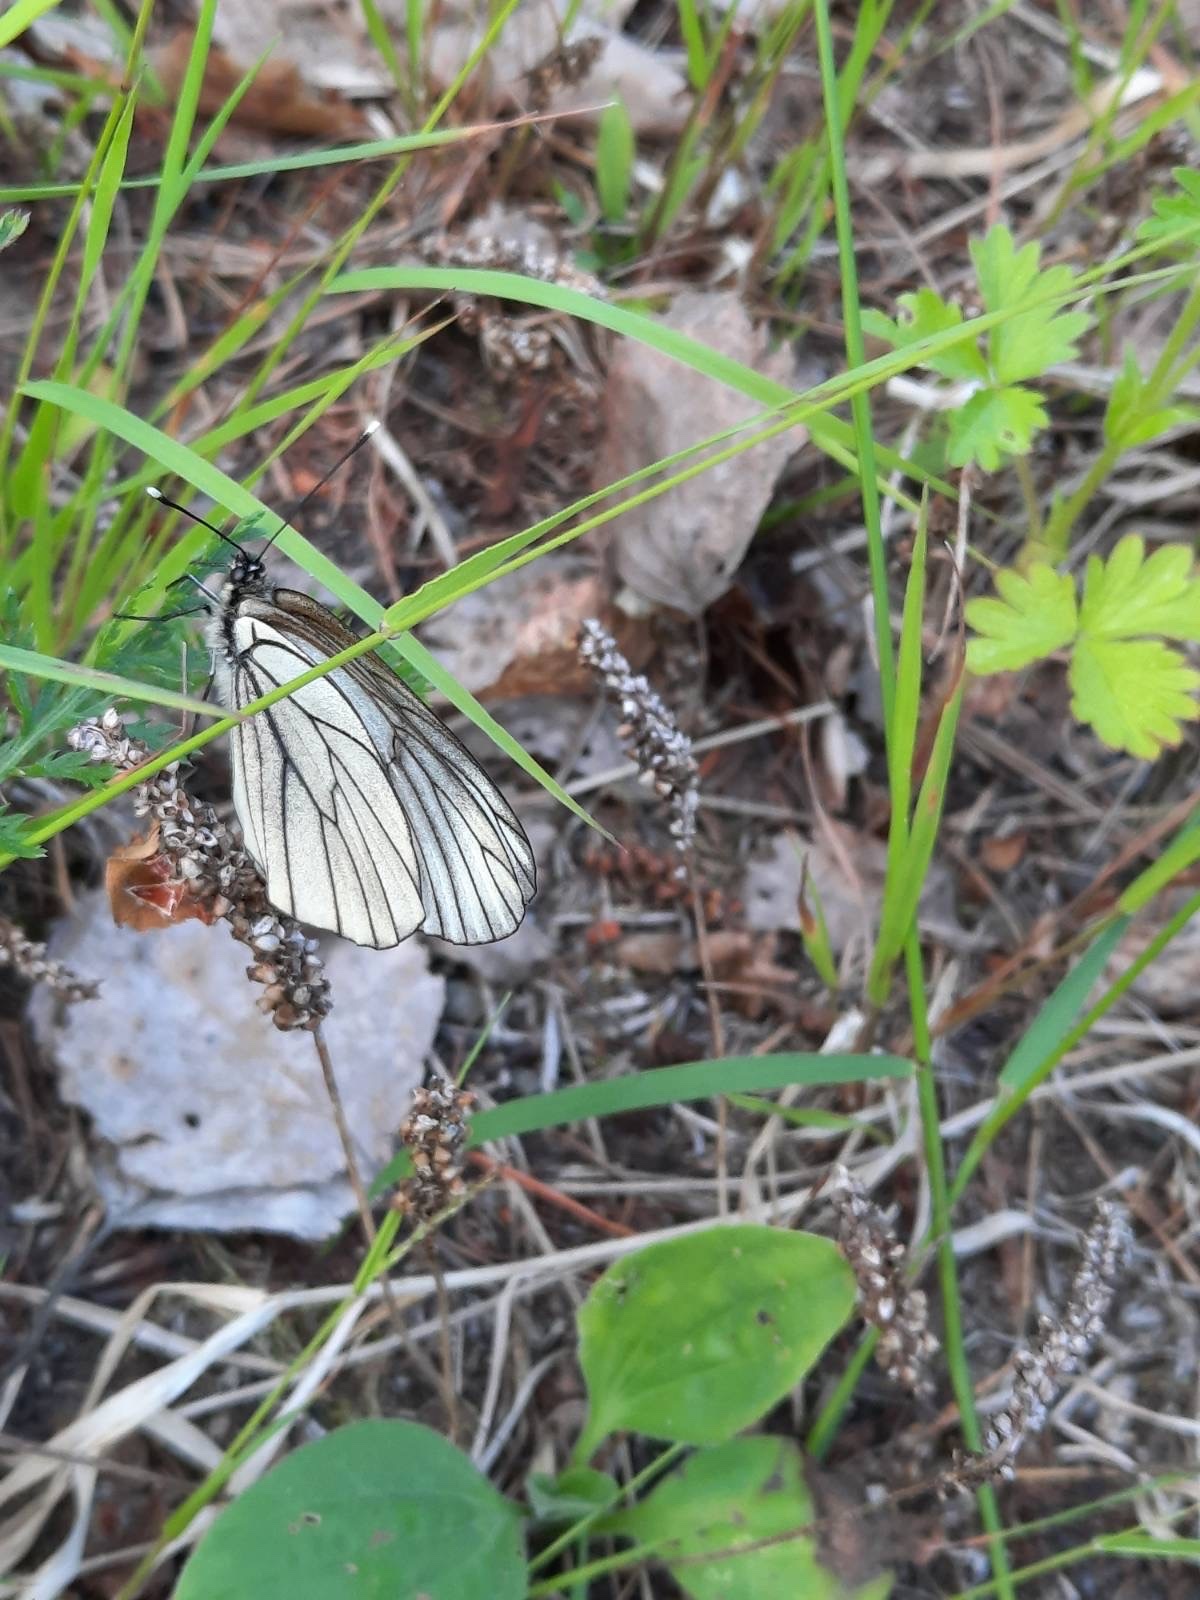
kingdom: Animalia
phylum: Arthropoda
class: Insecta
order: Lepidoptera
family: Pieridae
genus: Aporia
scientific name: Aporia crataegi
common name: Black-veined white
